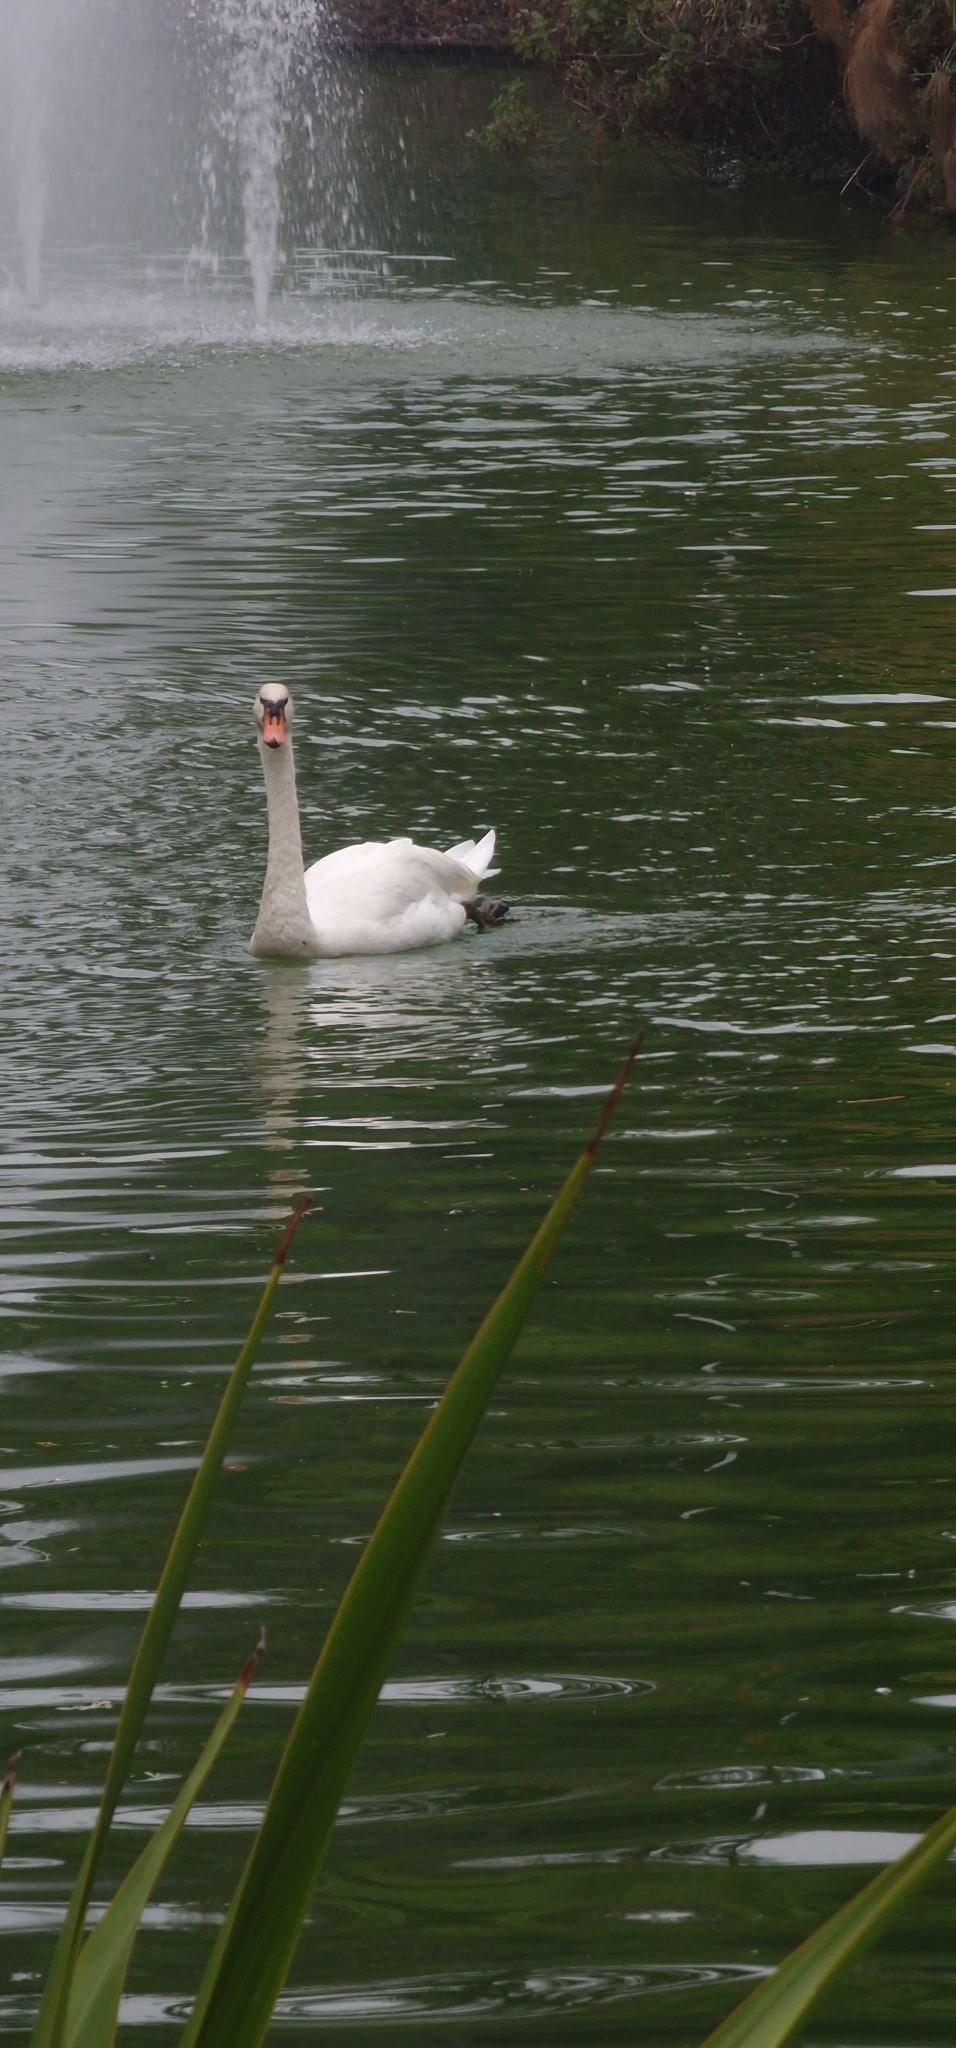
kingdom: Animalia
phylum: Chordata
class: Aves
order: Anseriformes
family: Anatidae
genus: Cygnus
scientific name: Cygnus olor
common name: Mute swan
